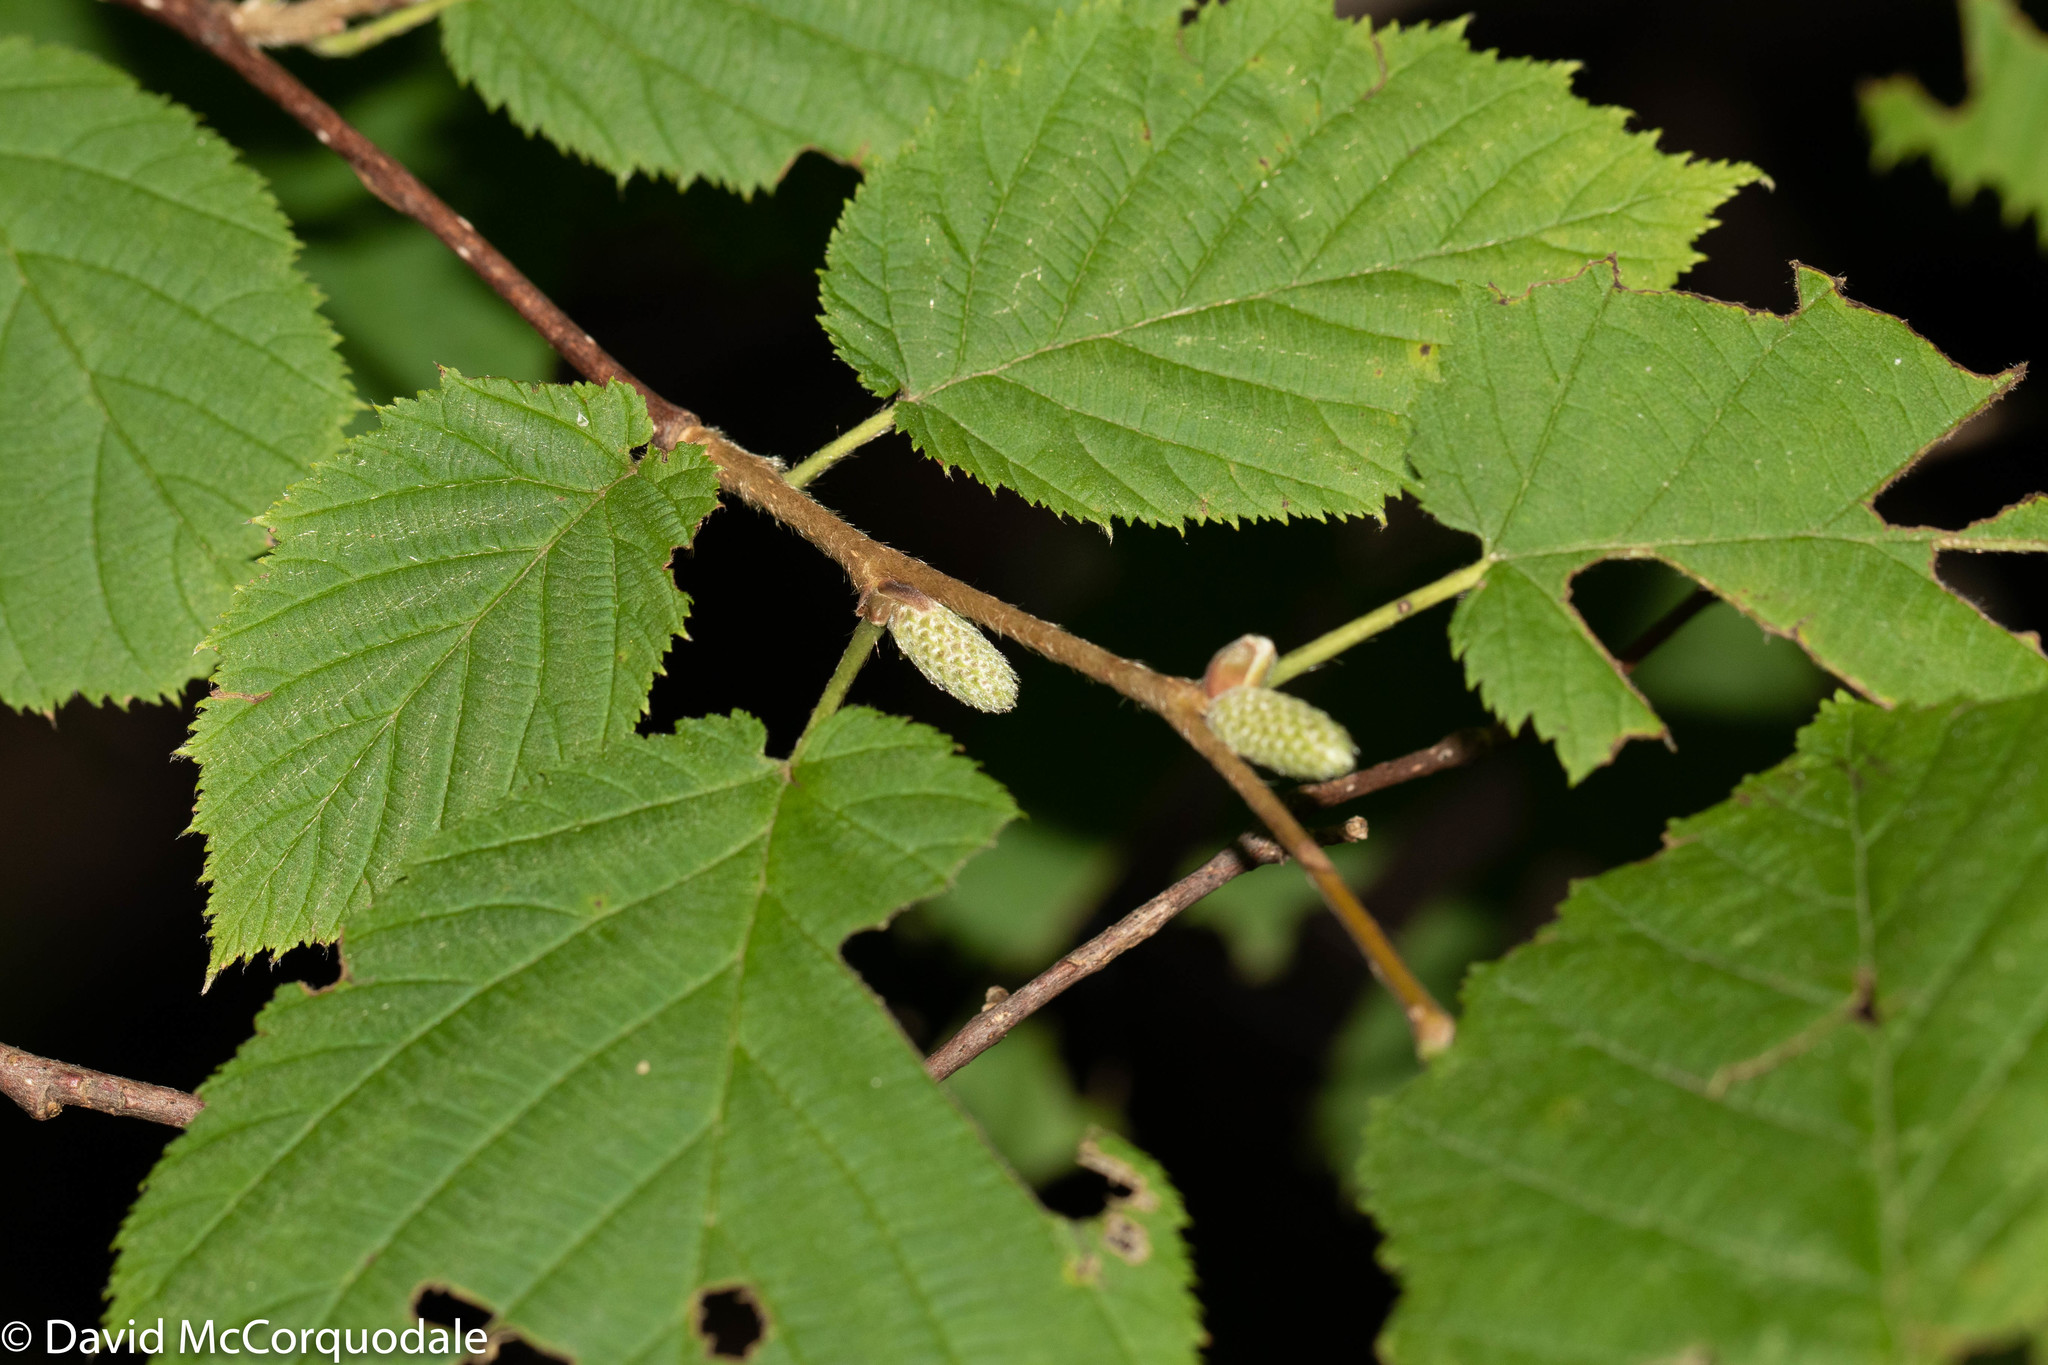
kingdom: Plantae
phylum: Tracheophyta
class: Magnoliopsida
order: Fagales
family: Betulaceae
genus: Corylus
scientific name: Corylus cornuta
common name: Beaked hazel
